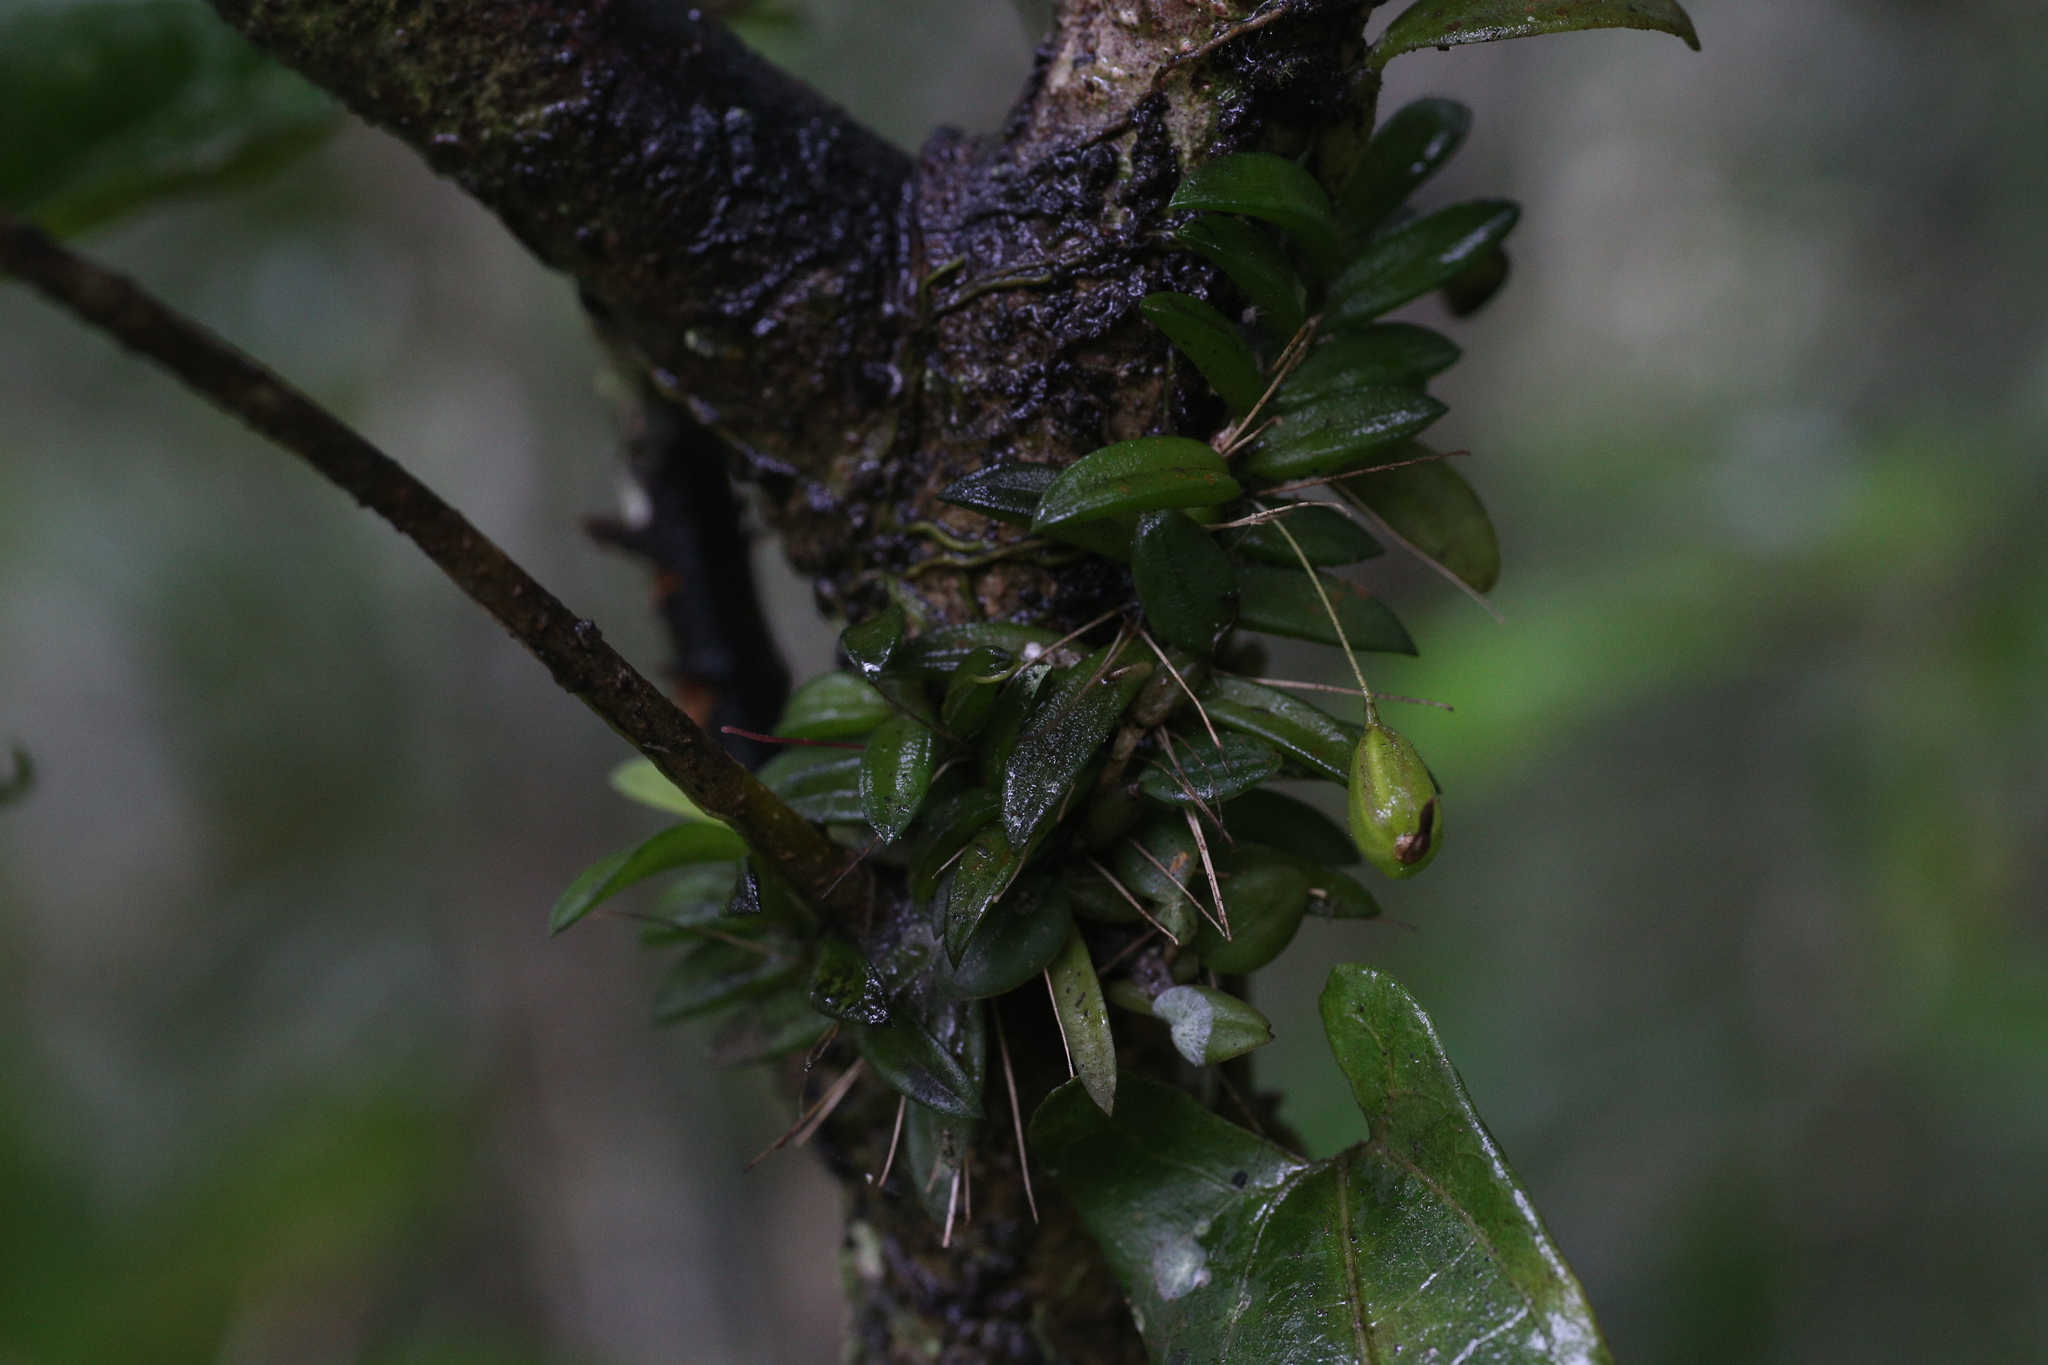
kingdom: Plantae
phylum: Tracheophyta
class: Liliopsida
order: Asparagales
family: Orchidaceae
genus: Bulbophyllum
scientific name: Bulbophyllum macphersonii
